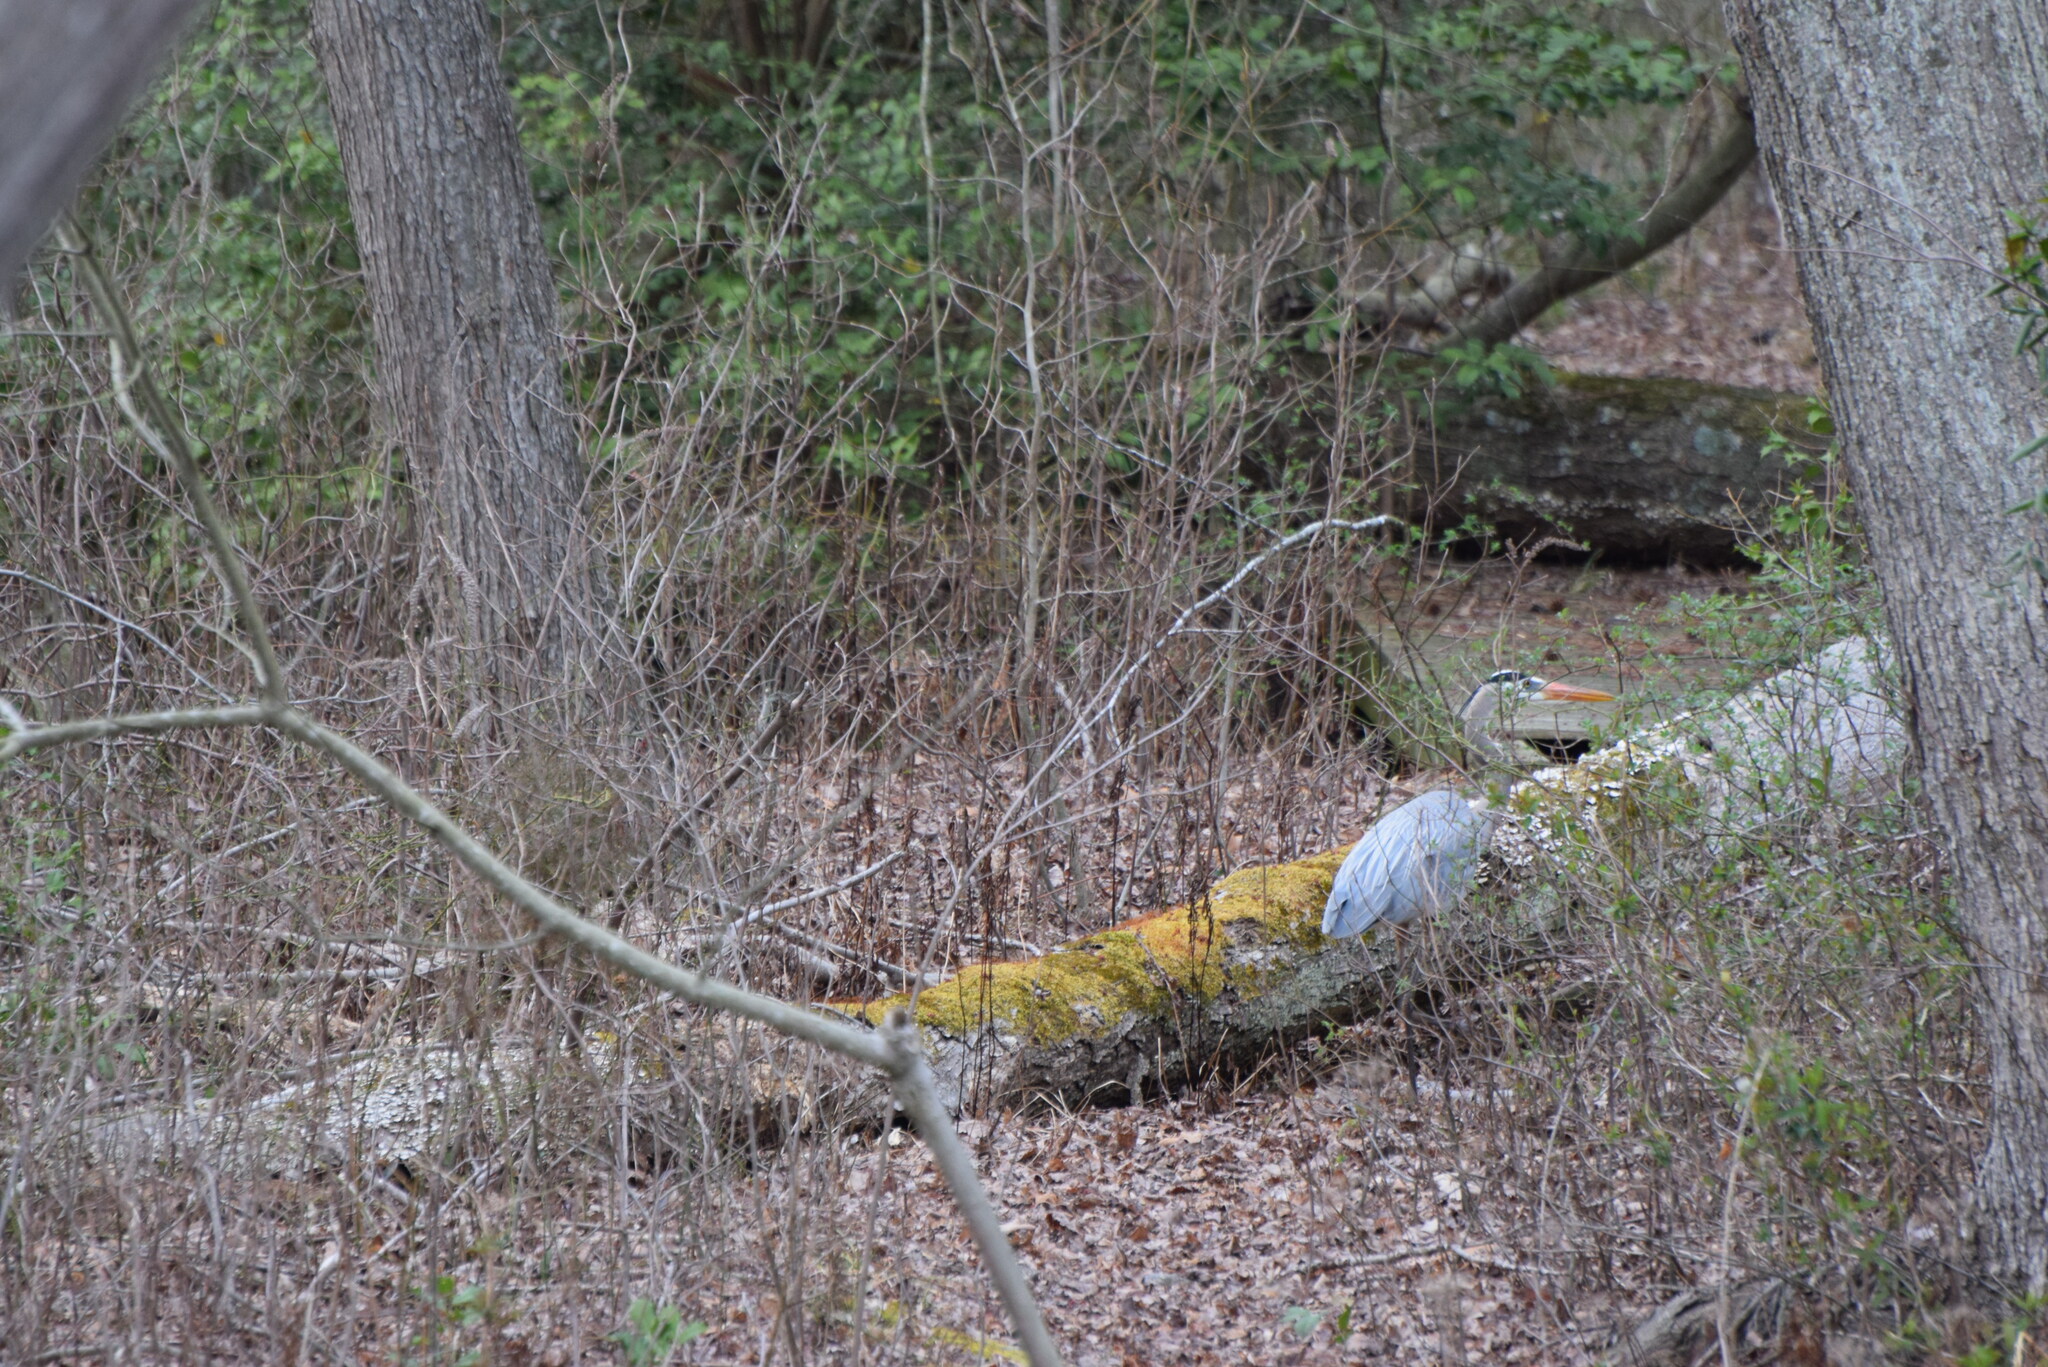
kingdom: Animalia
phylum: Chordata
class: Aves
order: Pelecaniformes
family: Ardeidae
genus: Ardea
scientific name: Ardea herodias
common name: Great blue heron
